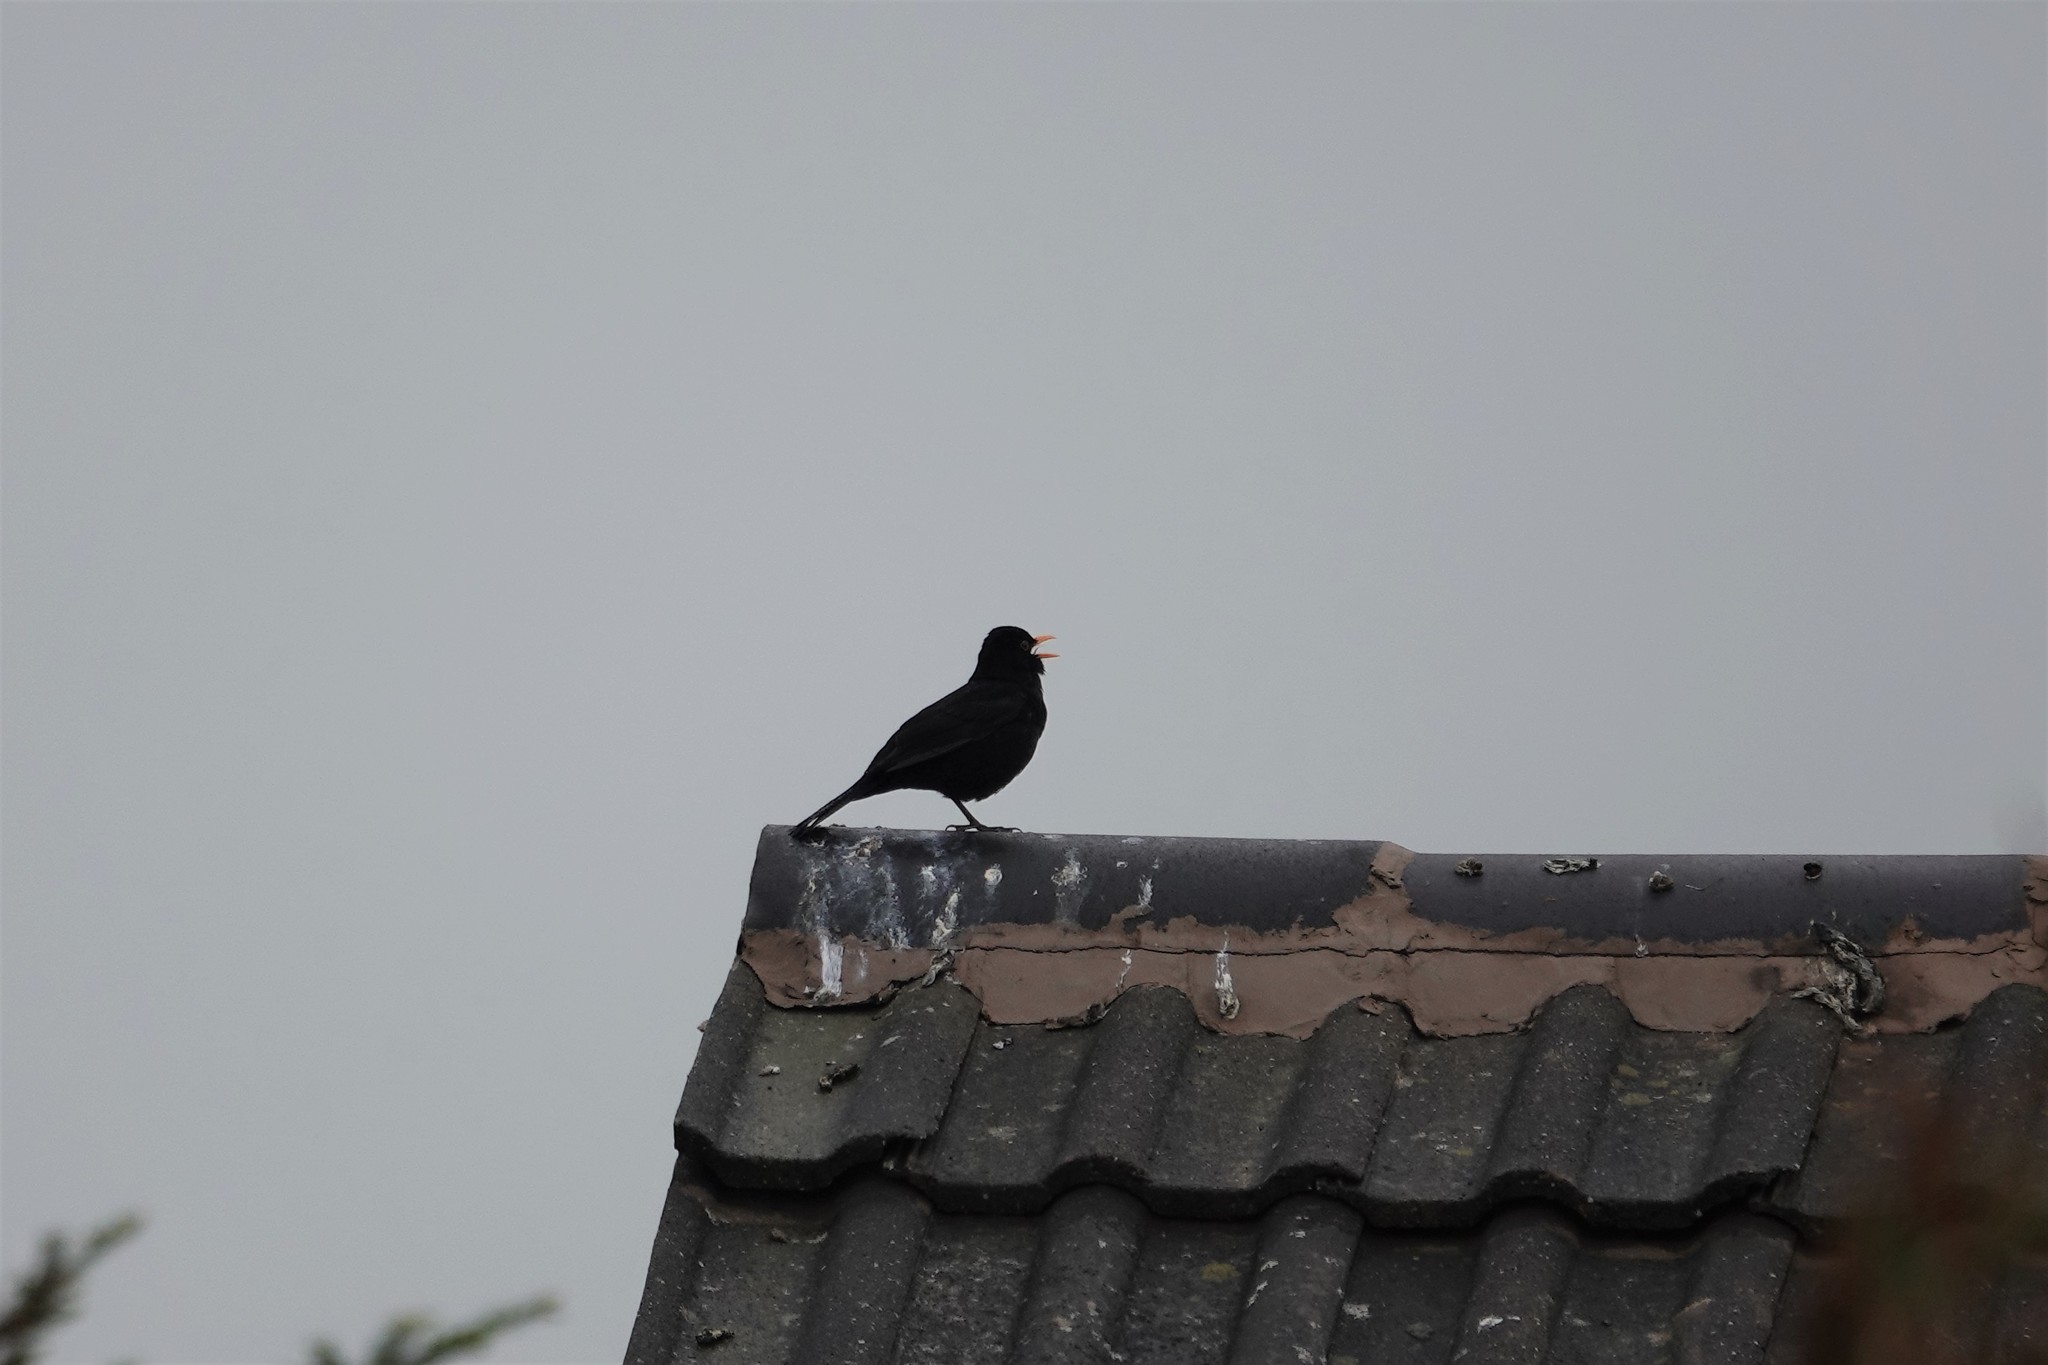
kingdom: Animalia
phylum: Chordata
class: Aves
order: Passeriformes
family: Turdidae
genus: Turdus
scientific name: Turdus merula
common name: Common blackbird
